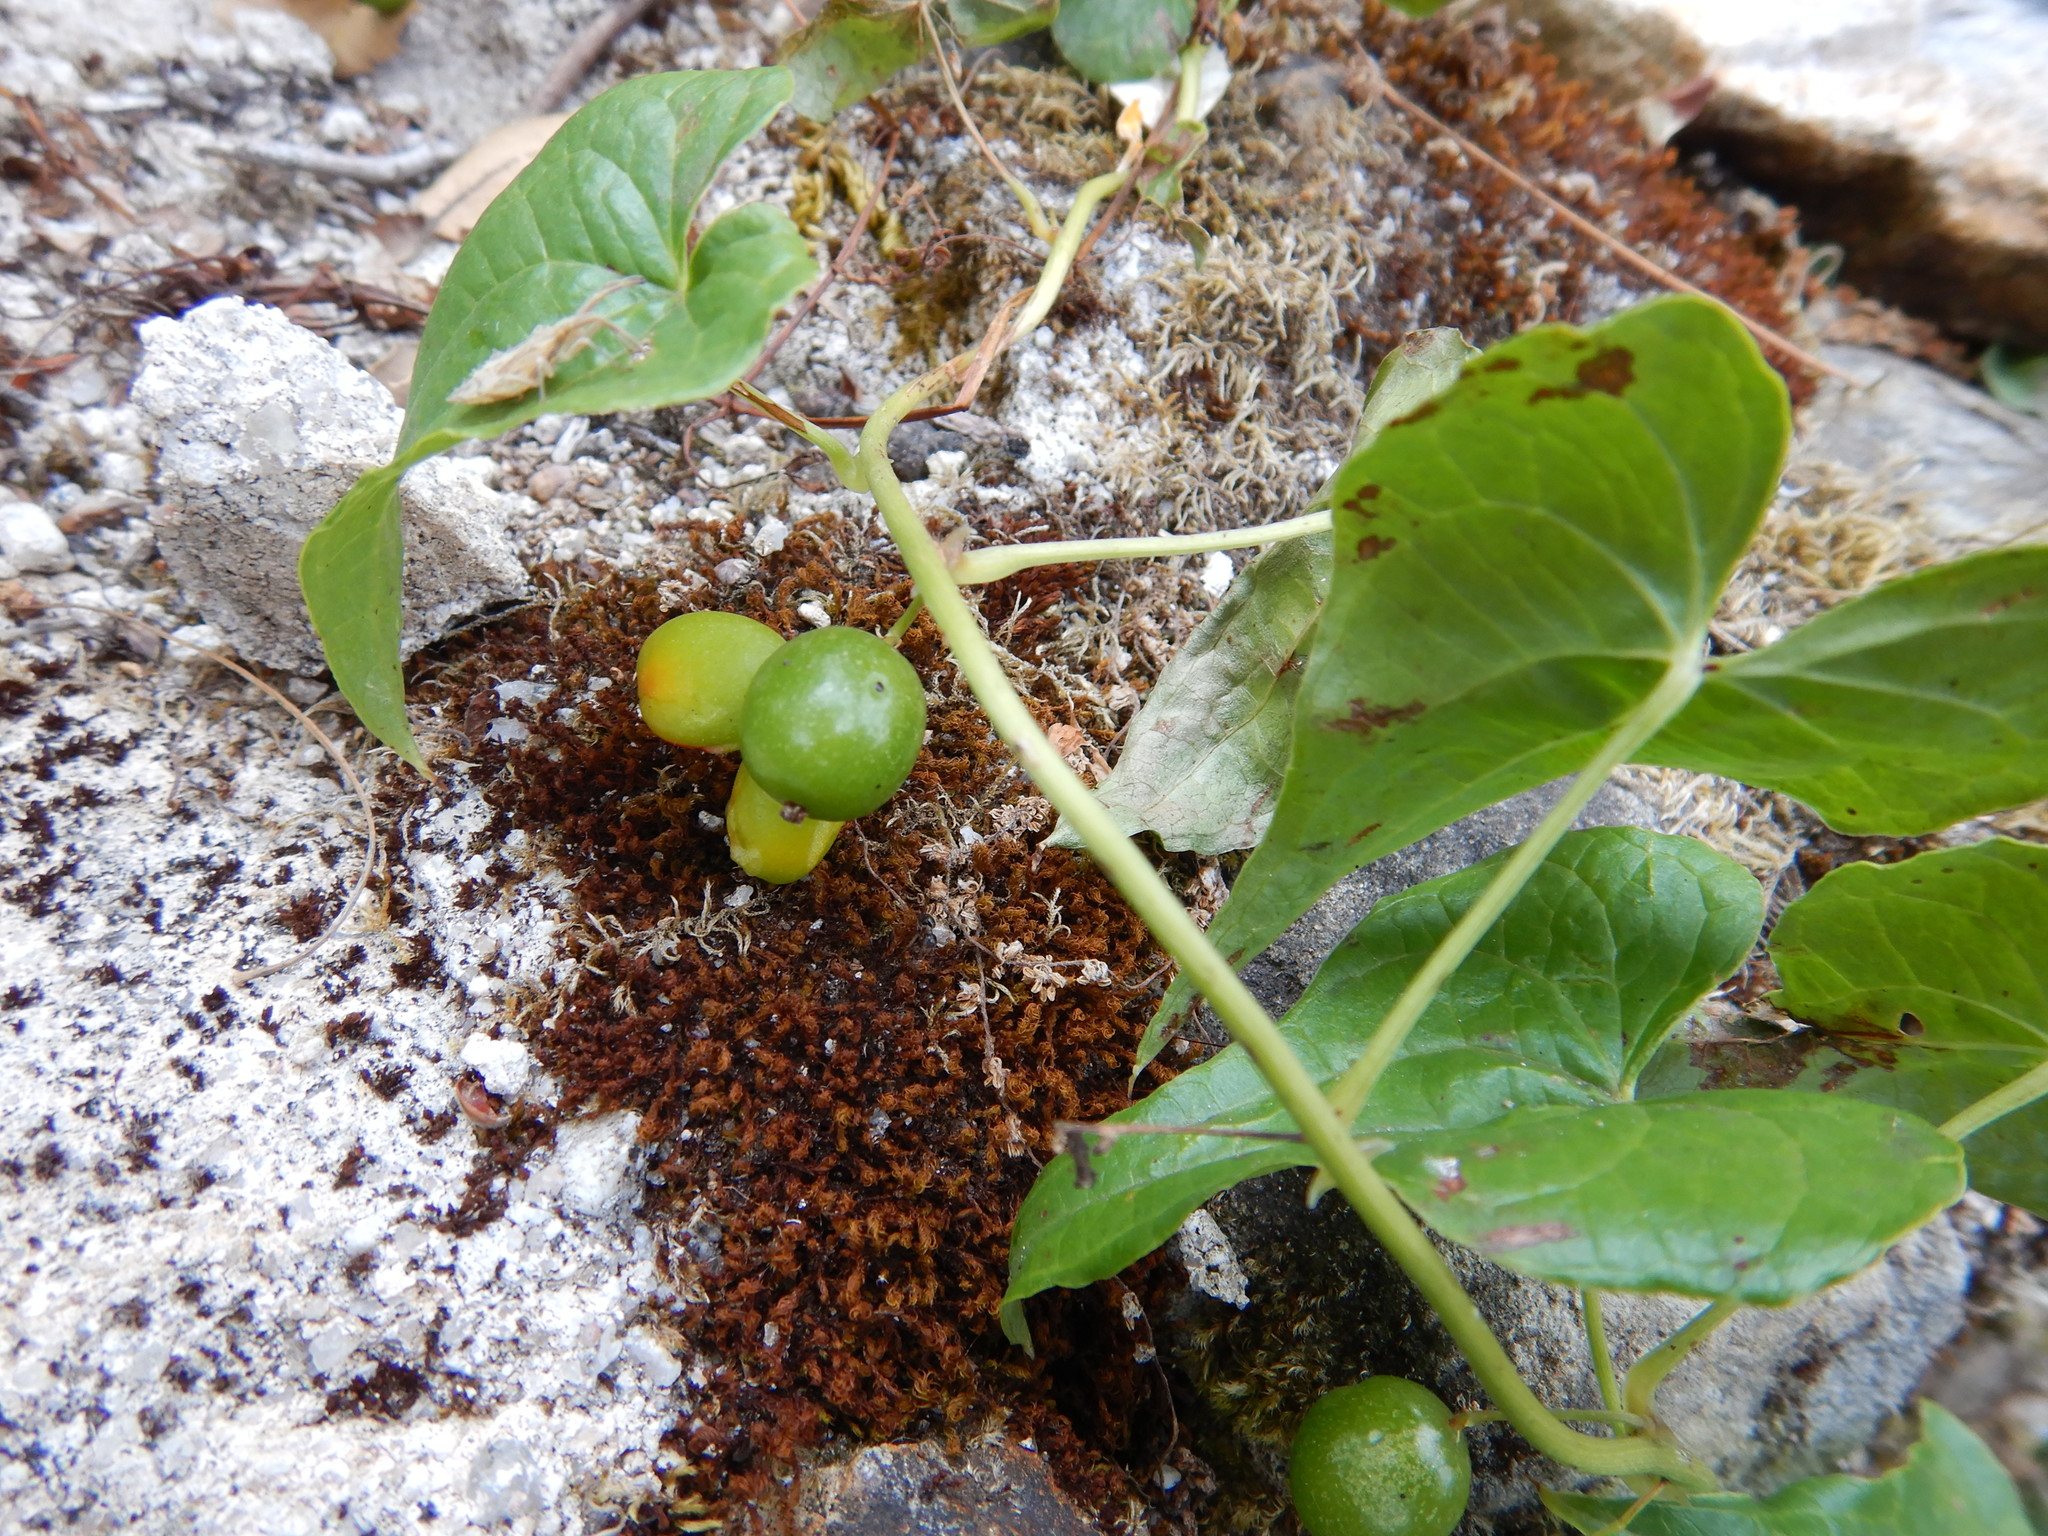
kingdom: Plantae
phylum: Tracheophyta
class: Liliopsida
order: Dioscoreales
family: Dioscoreaceae
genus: Dioscorea
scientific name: Dioscorea communis
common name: Black-bindweed
